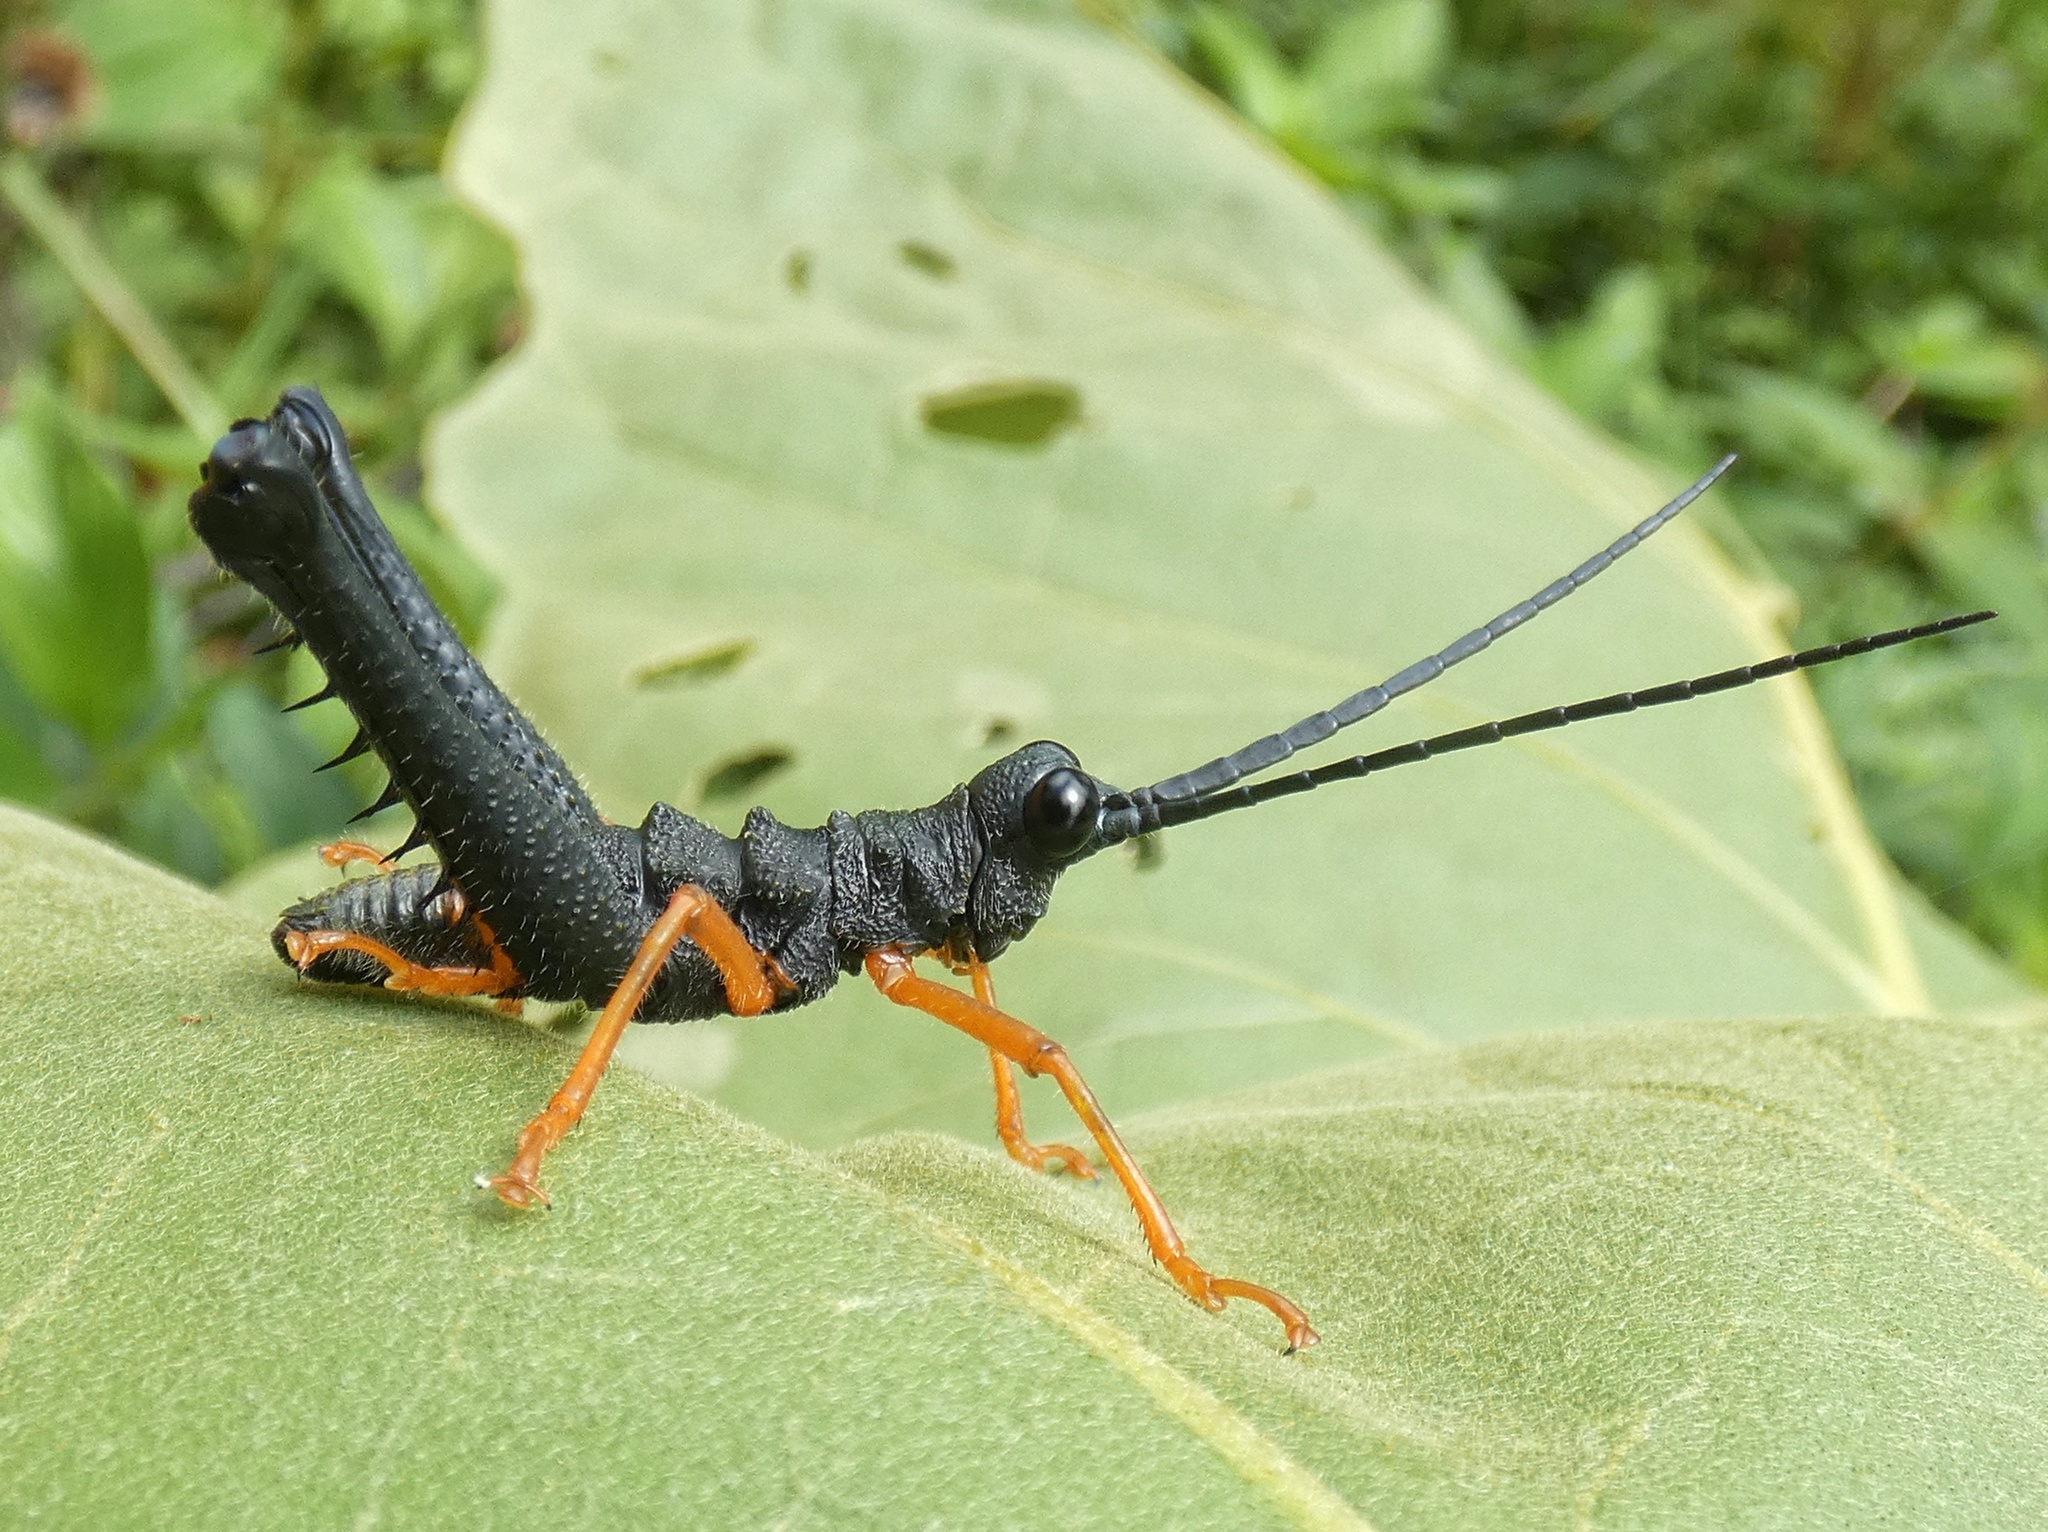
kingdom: Animalia
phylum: Arthropoda
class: Insecta
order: Orthoptera
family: Acrididae
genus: Piezops
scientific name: Piezops ensicornis
